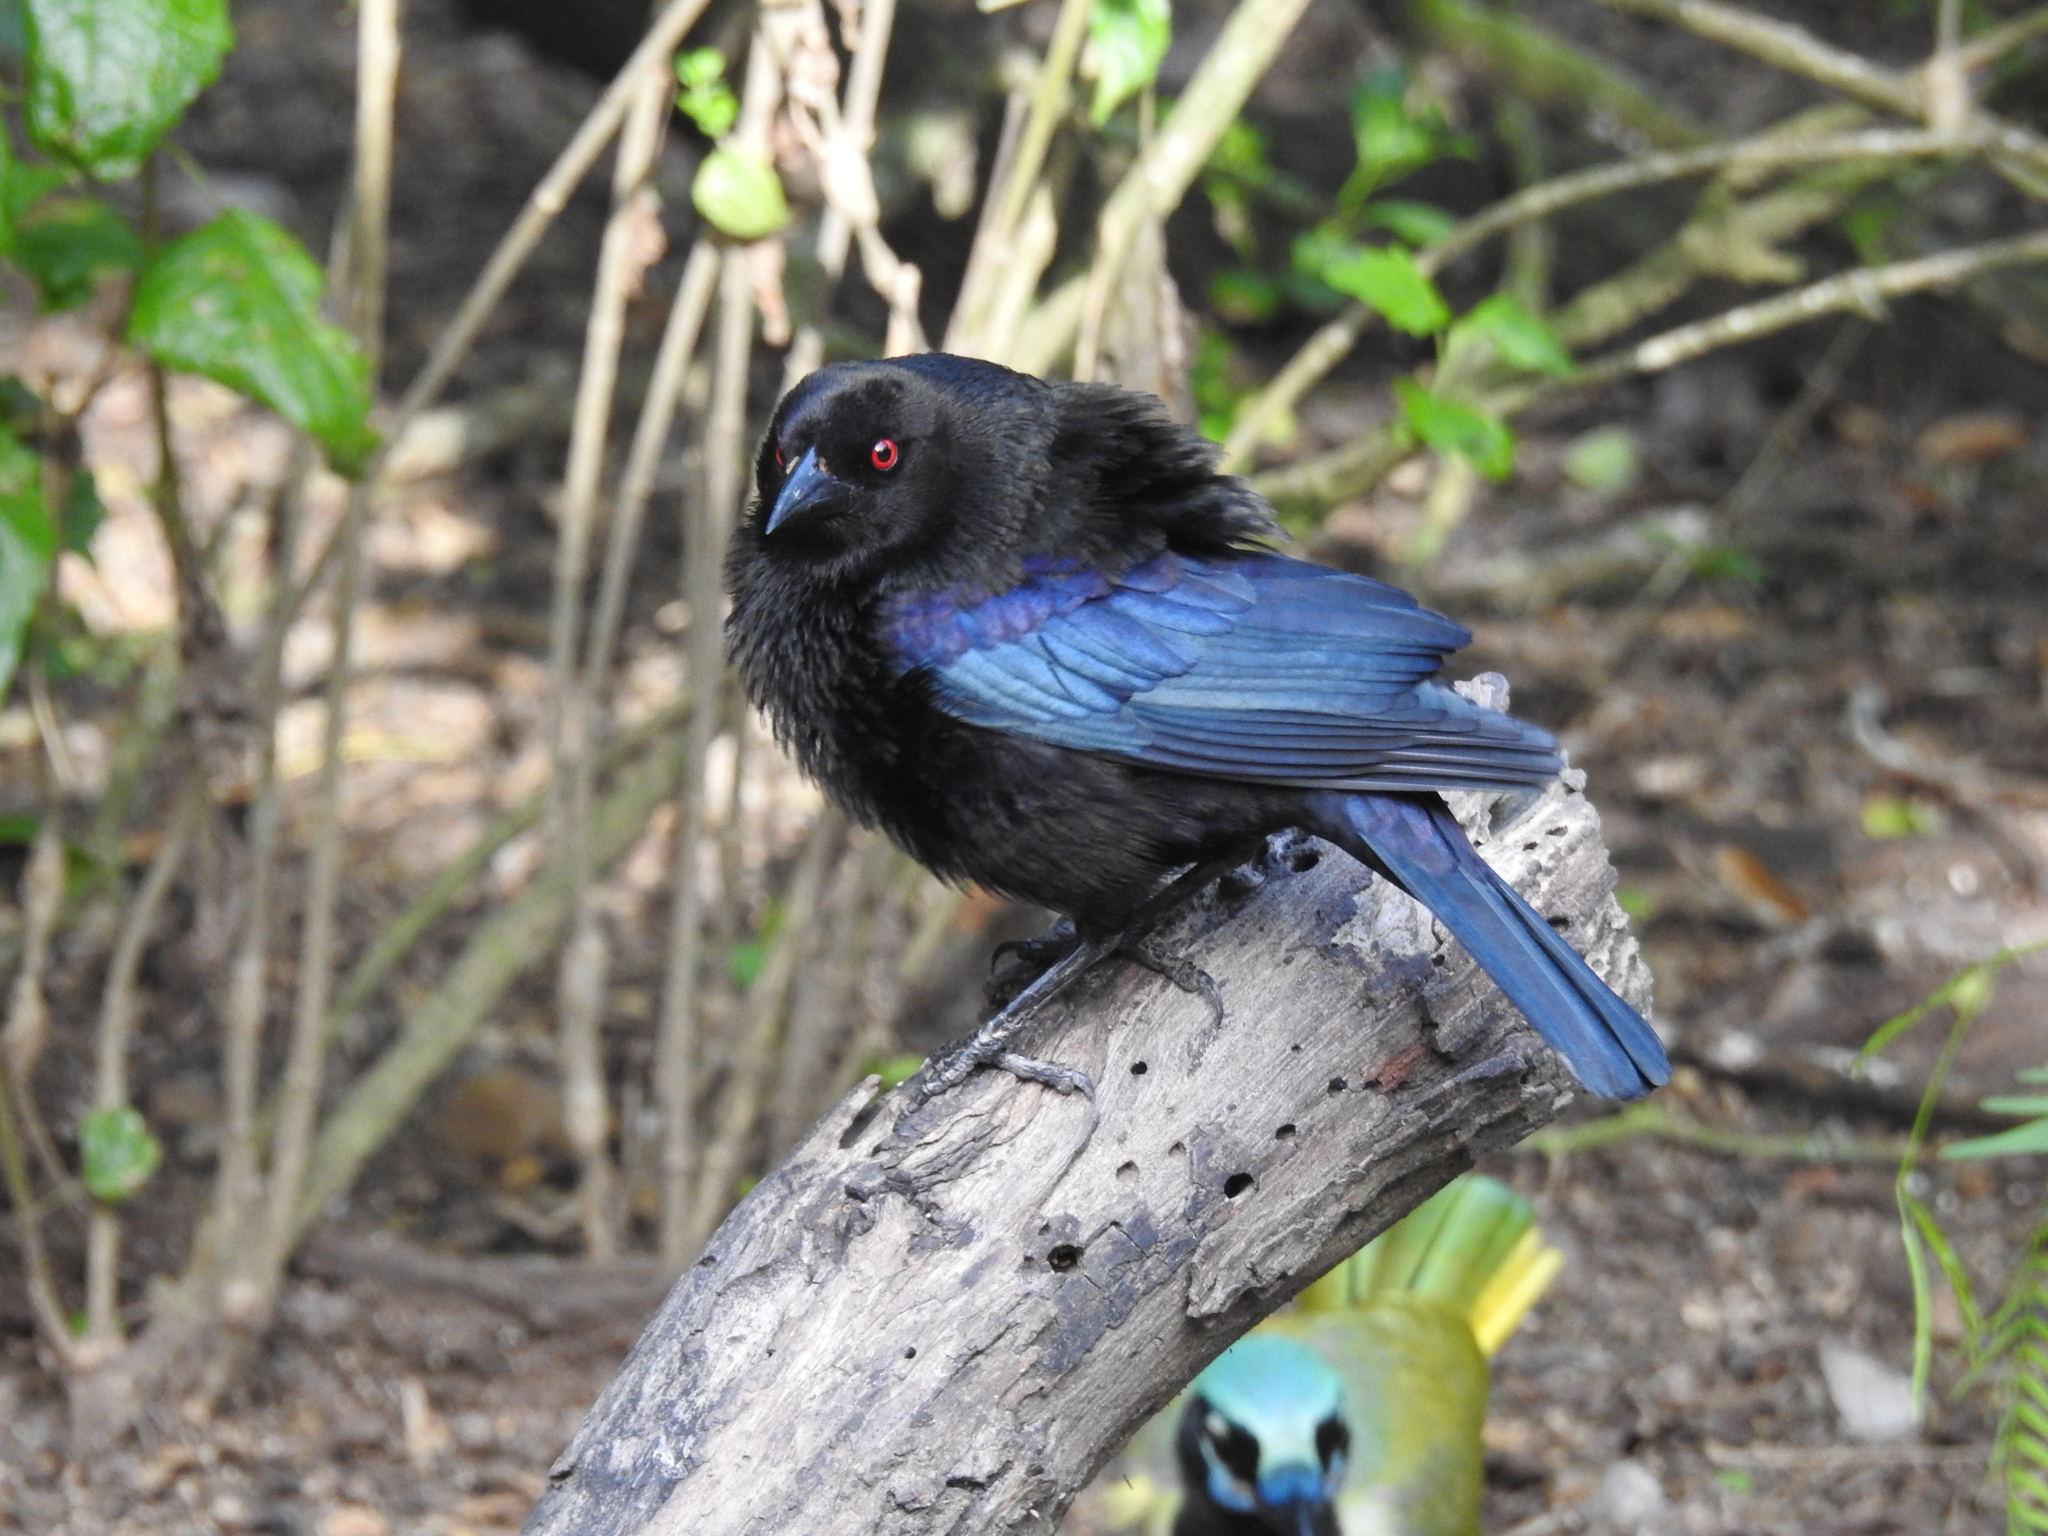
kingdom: Animalia
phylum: Chordata
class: Aves
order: Passeriformes
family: Icteridae
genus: Molothrus
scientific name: Molothrus aeneus
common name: Bronzed cowbird
